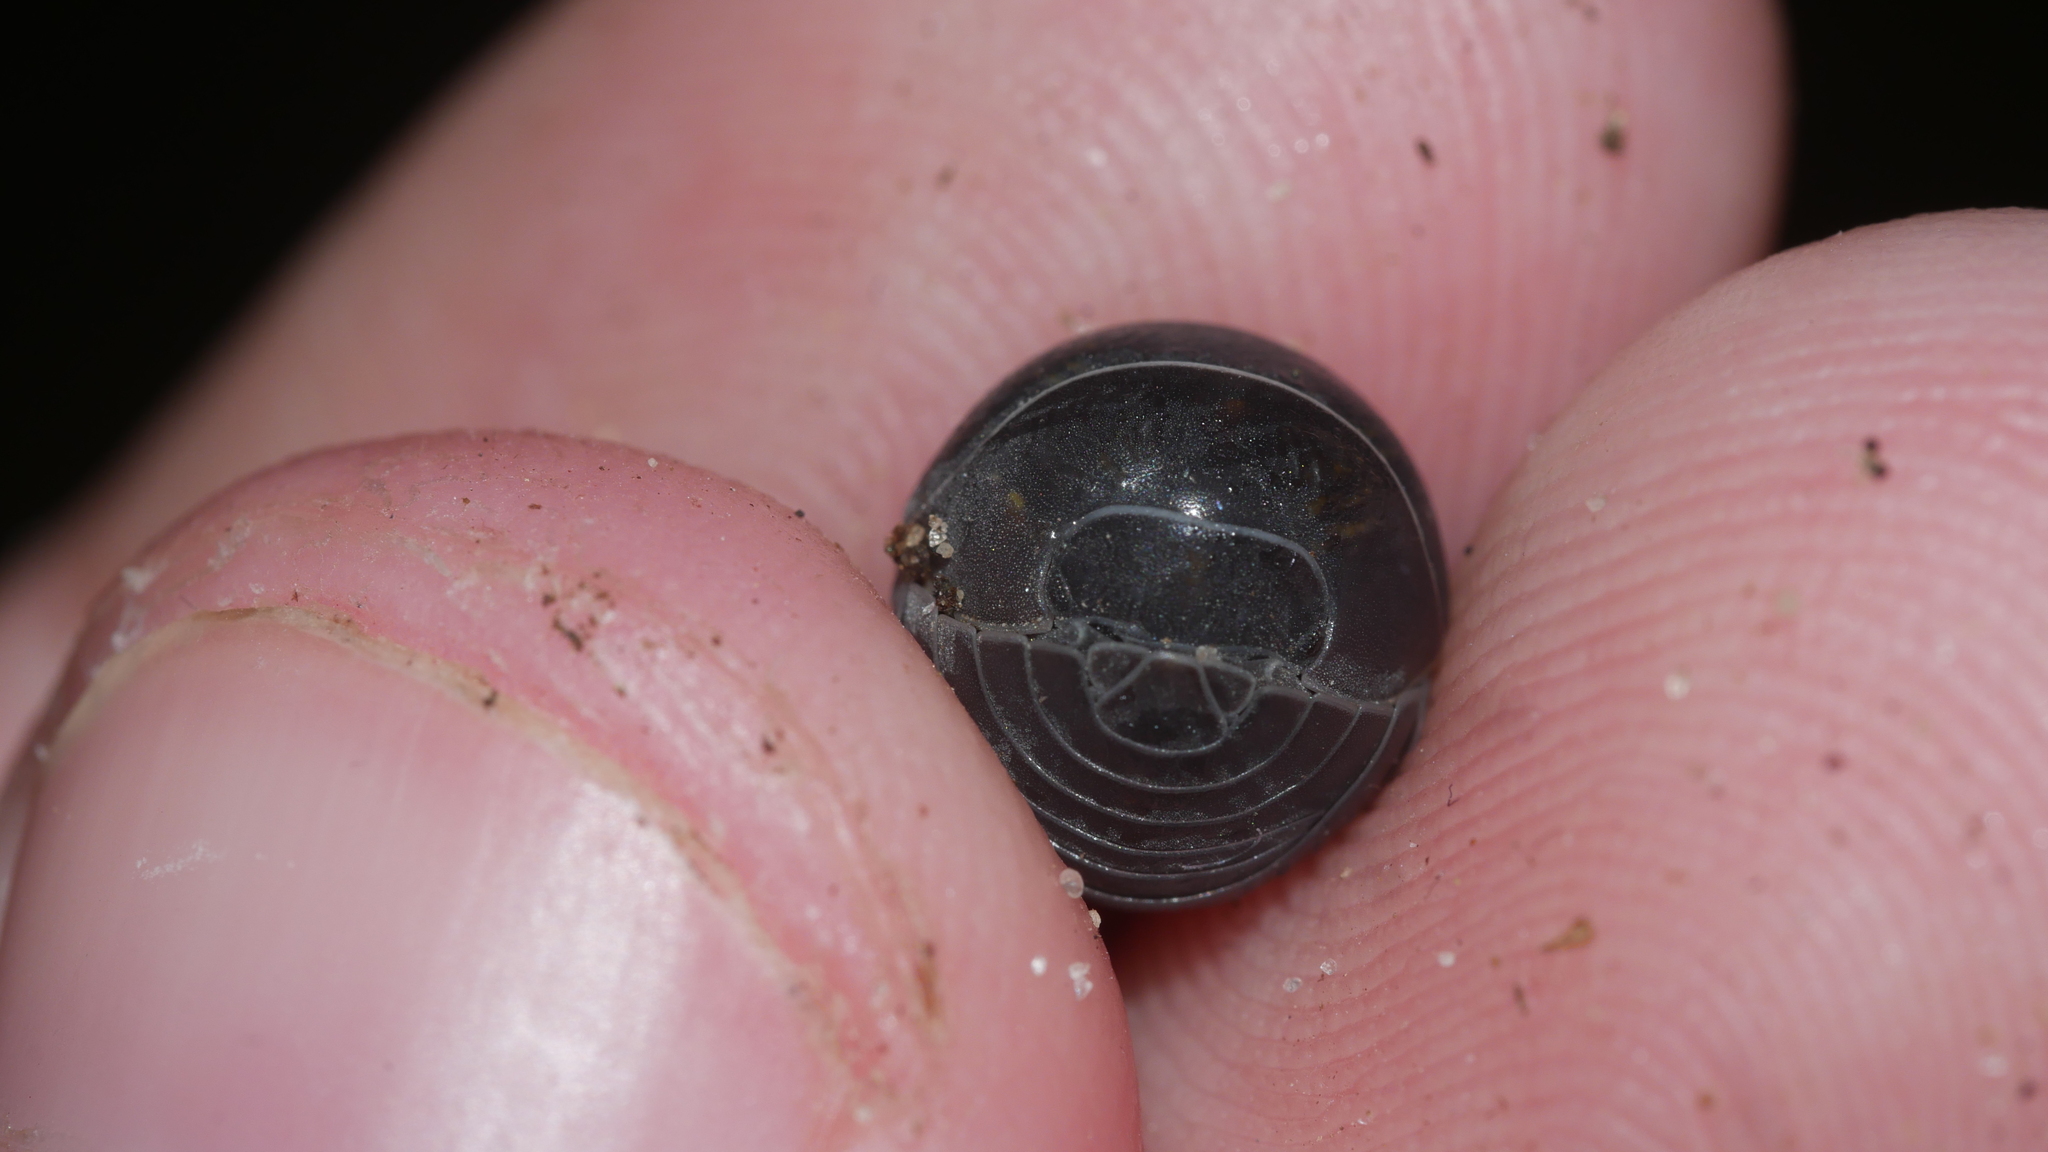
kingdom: Animalia
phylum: Arthropoda
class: Malacostraca
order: Isopoda
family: Armadillidiidae
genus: Armadillidium
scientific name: Armadillidium vulgare
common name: Common pill woodlouse
